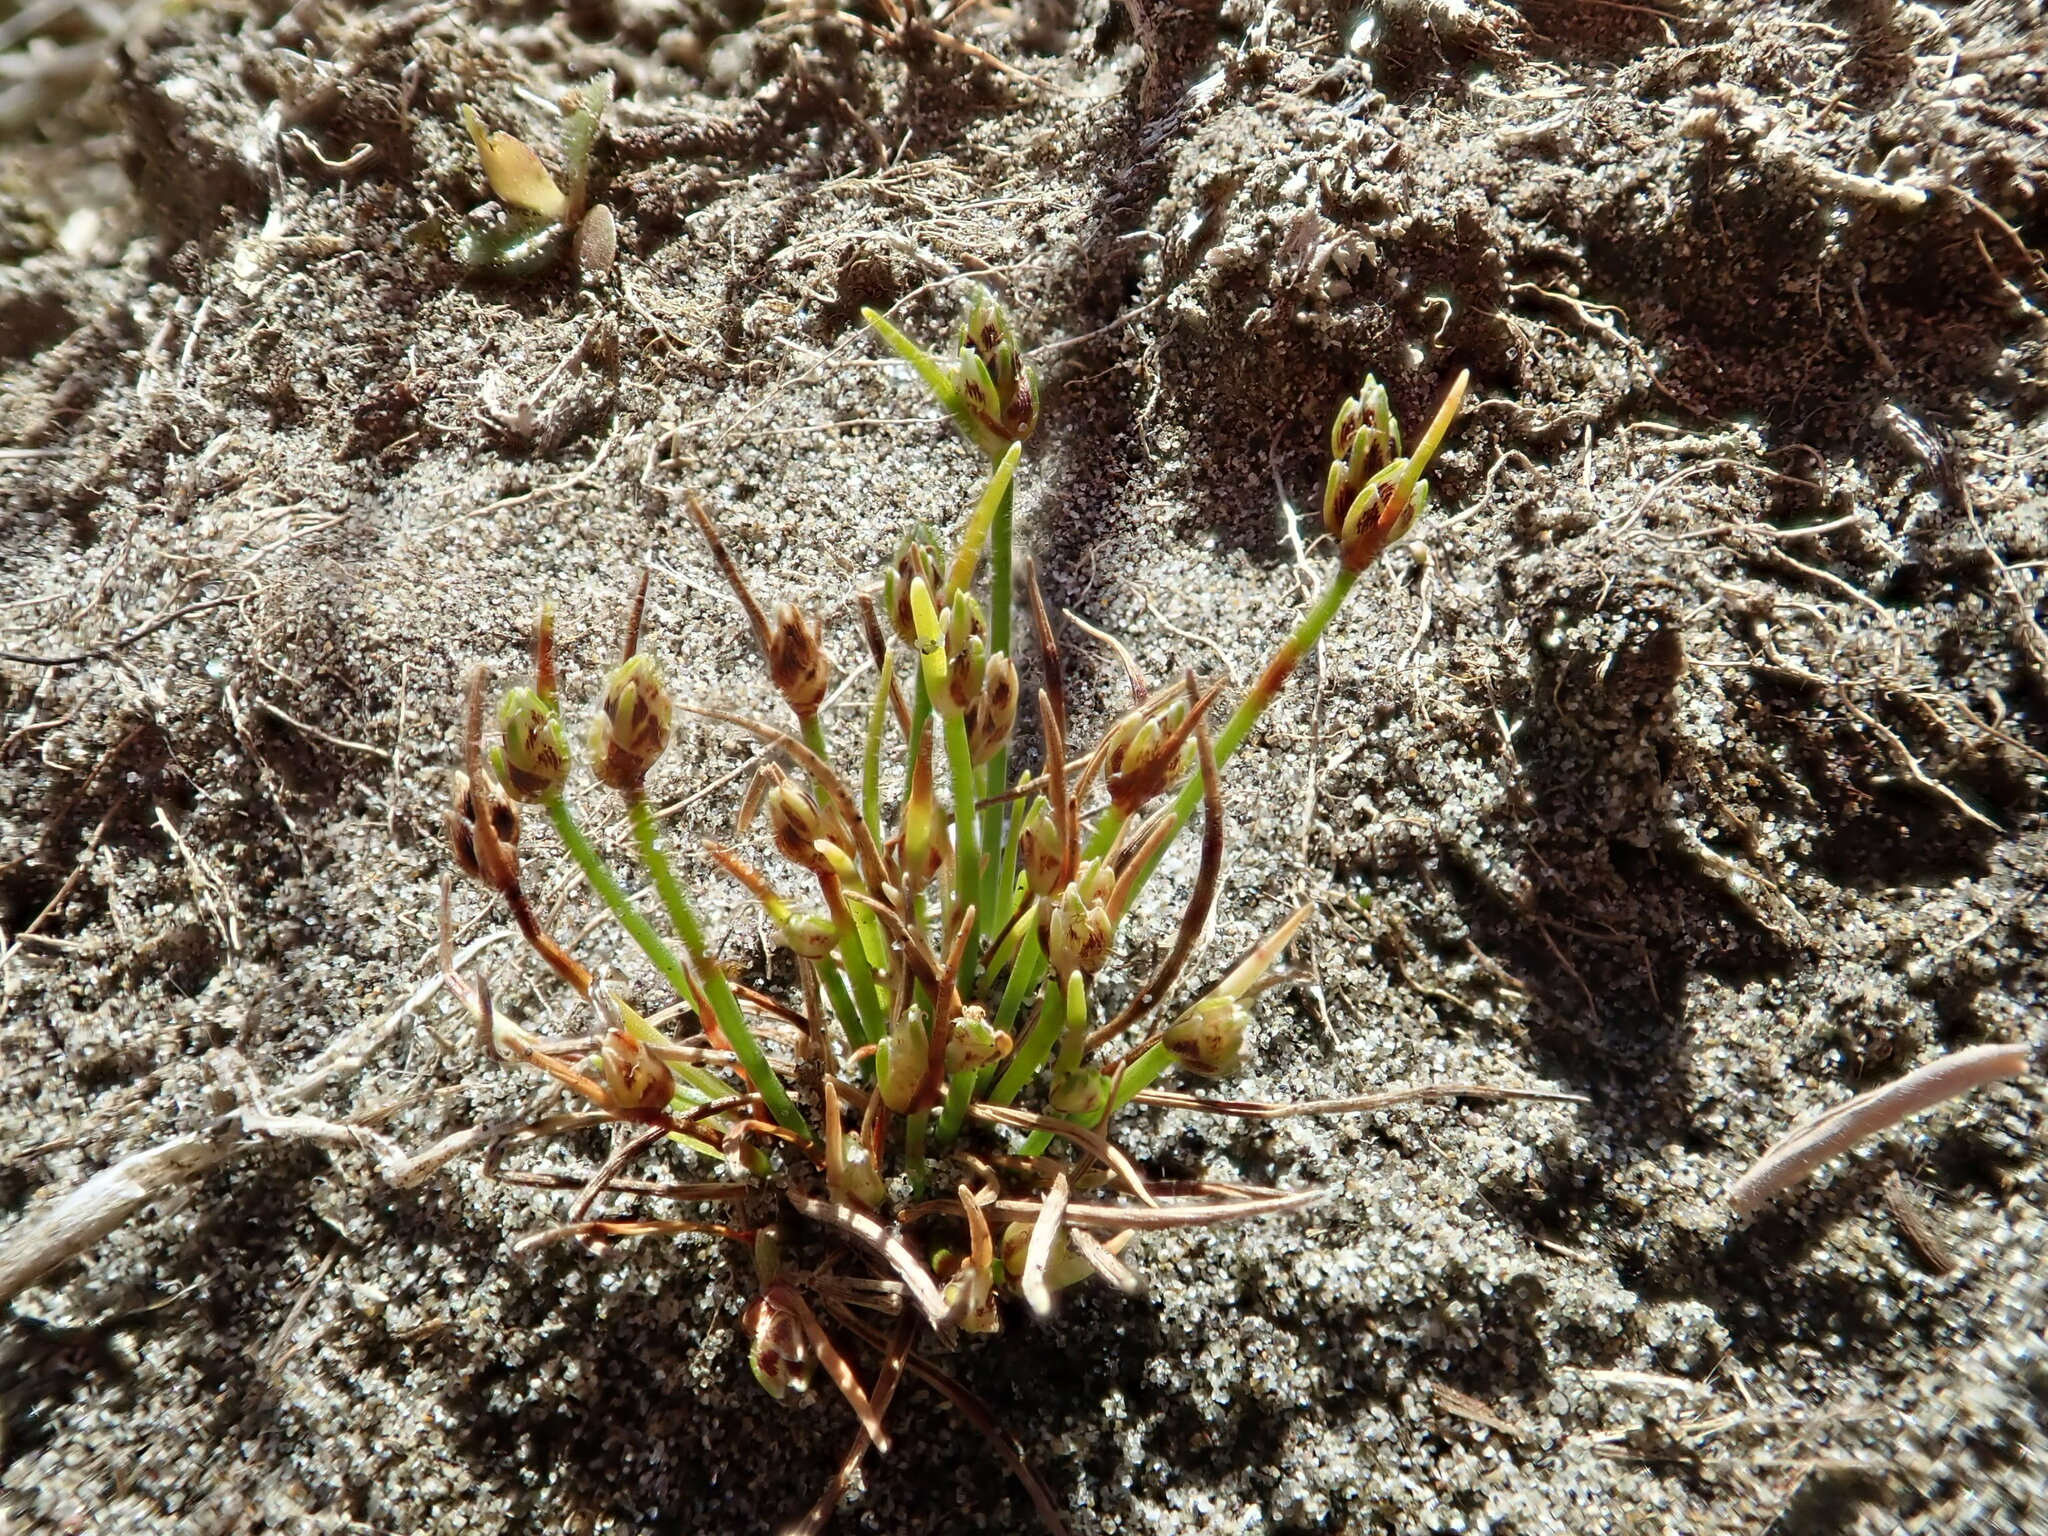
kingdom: Plantae
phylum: Tracheophyta
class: Liliopsida
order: Poales
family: Cyperaceae
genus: Isolepis
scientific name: Isolepis marginata
